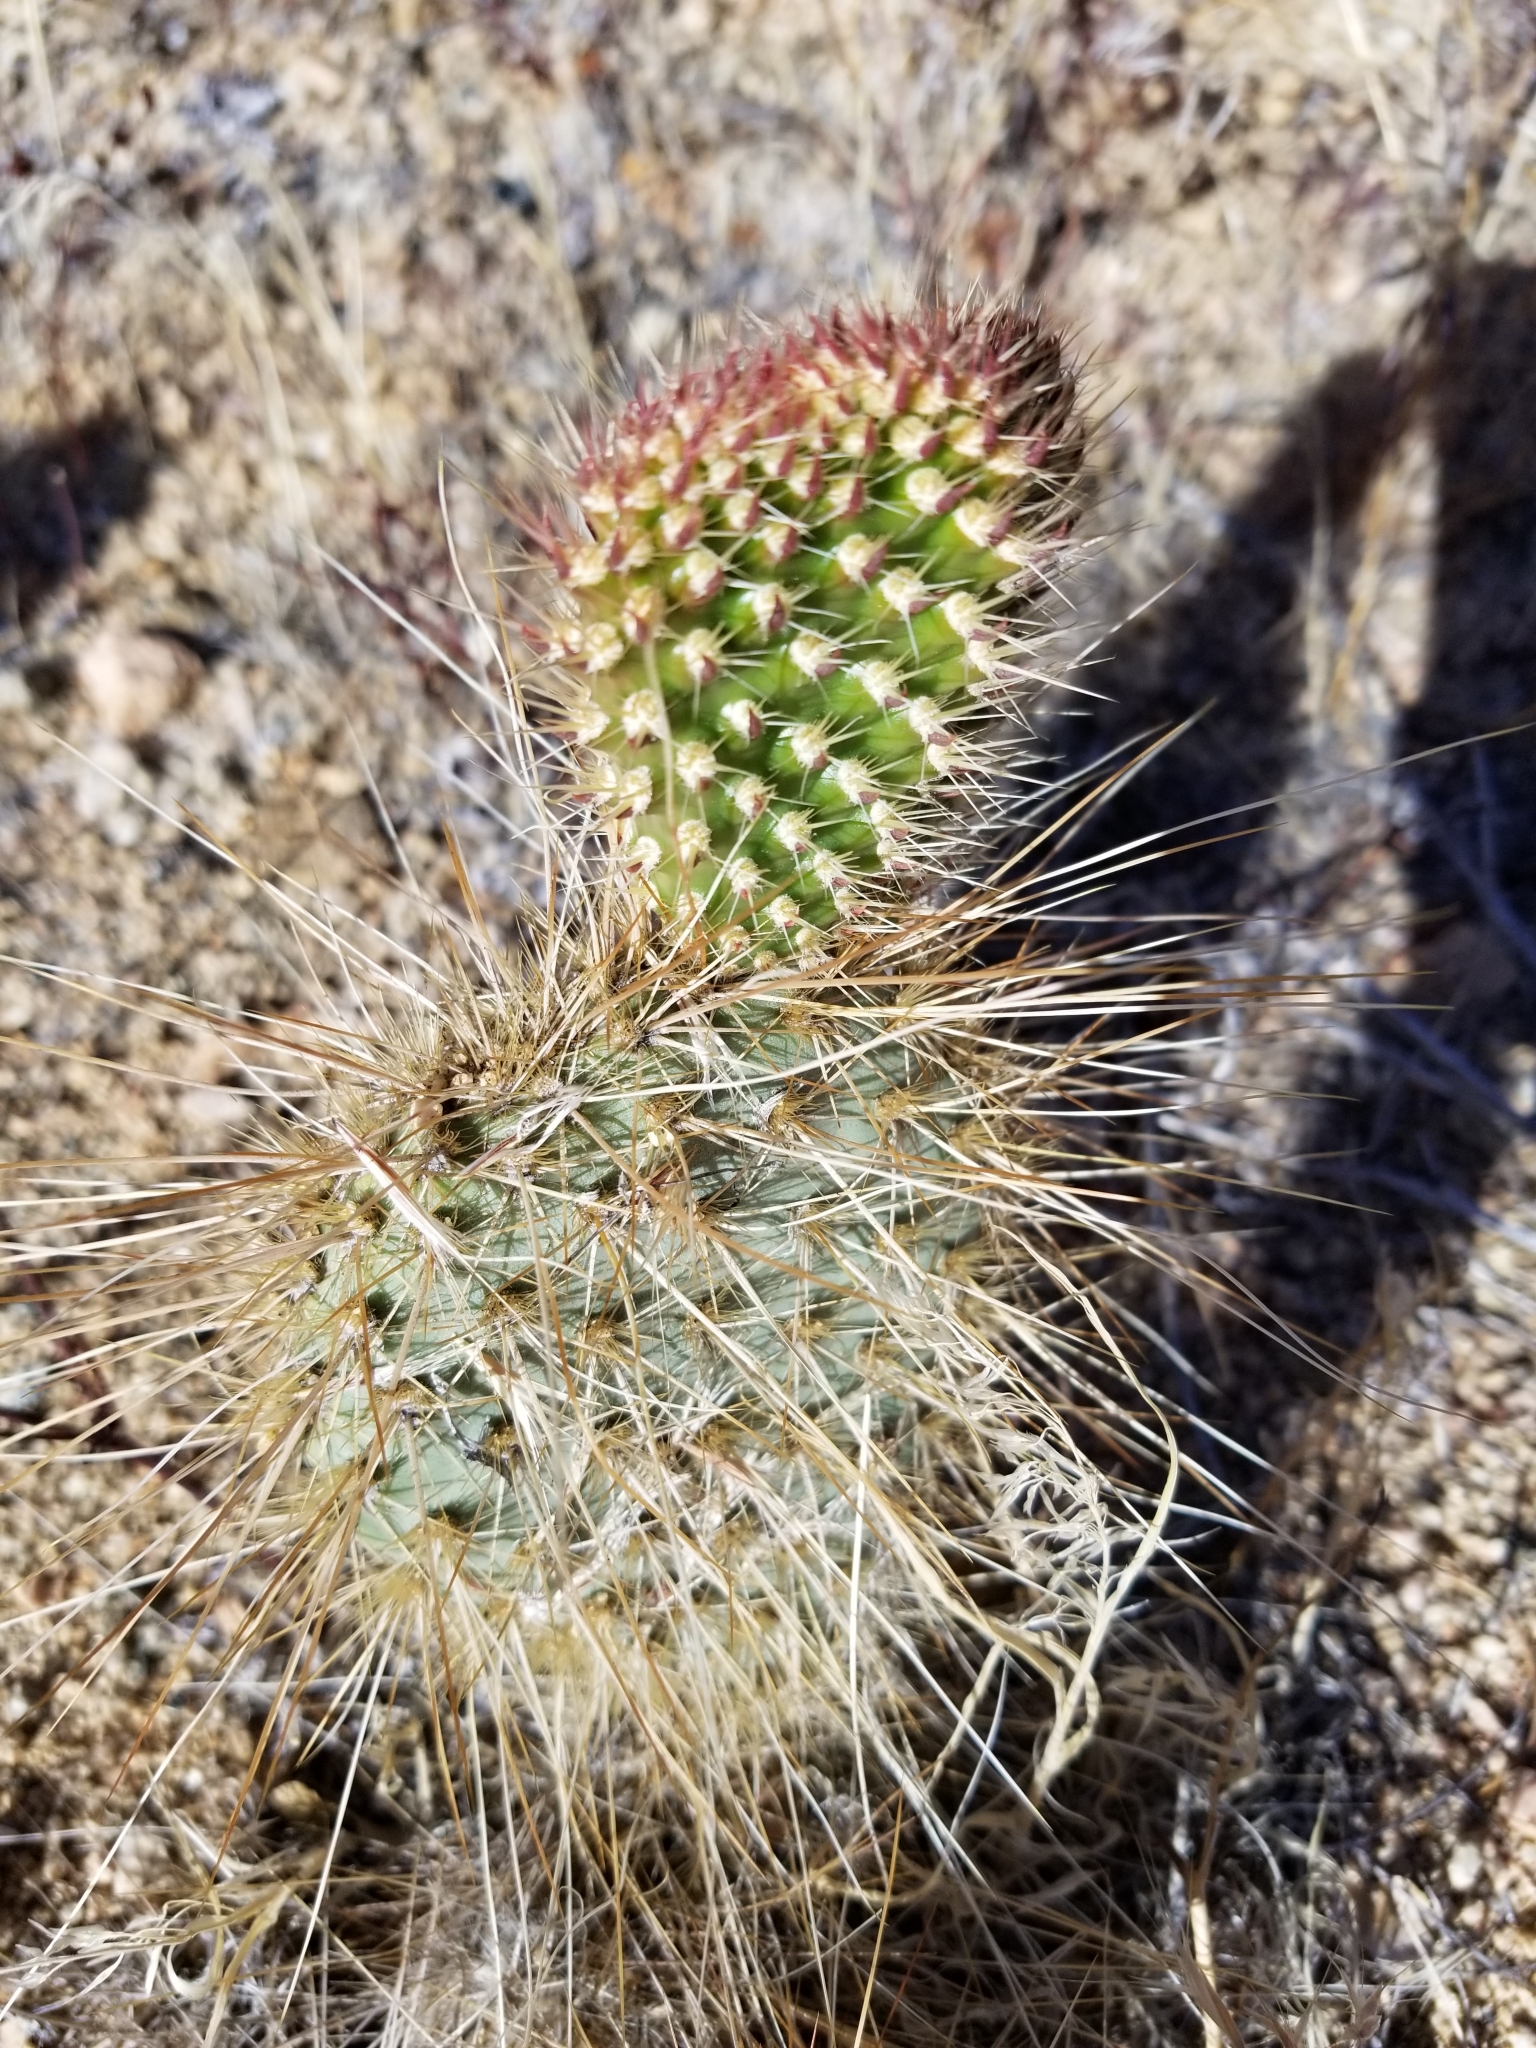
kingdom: Plantae
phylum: Tracheophyta
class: Magnoliopsida
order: Caryophyllales
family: Cactaceae
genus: Opuntia
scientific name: Opuntia polyacantha
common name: Plains prickly-pear
